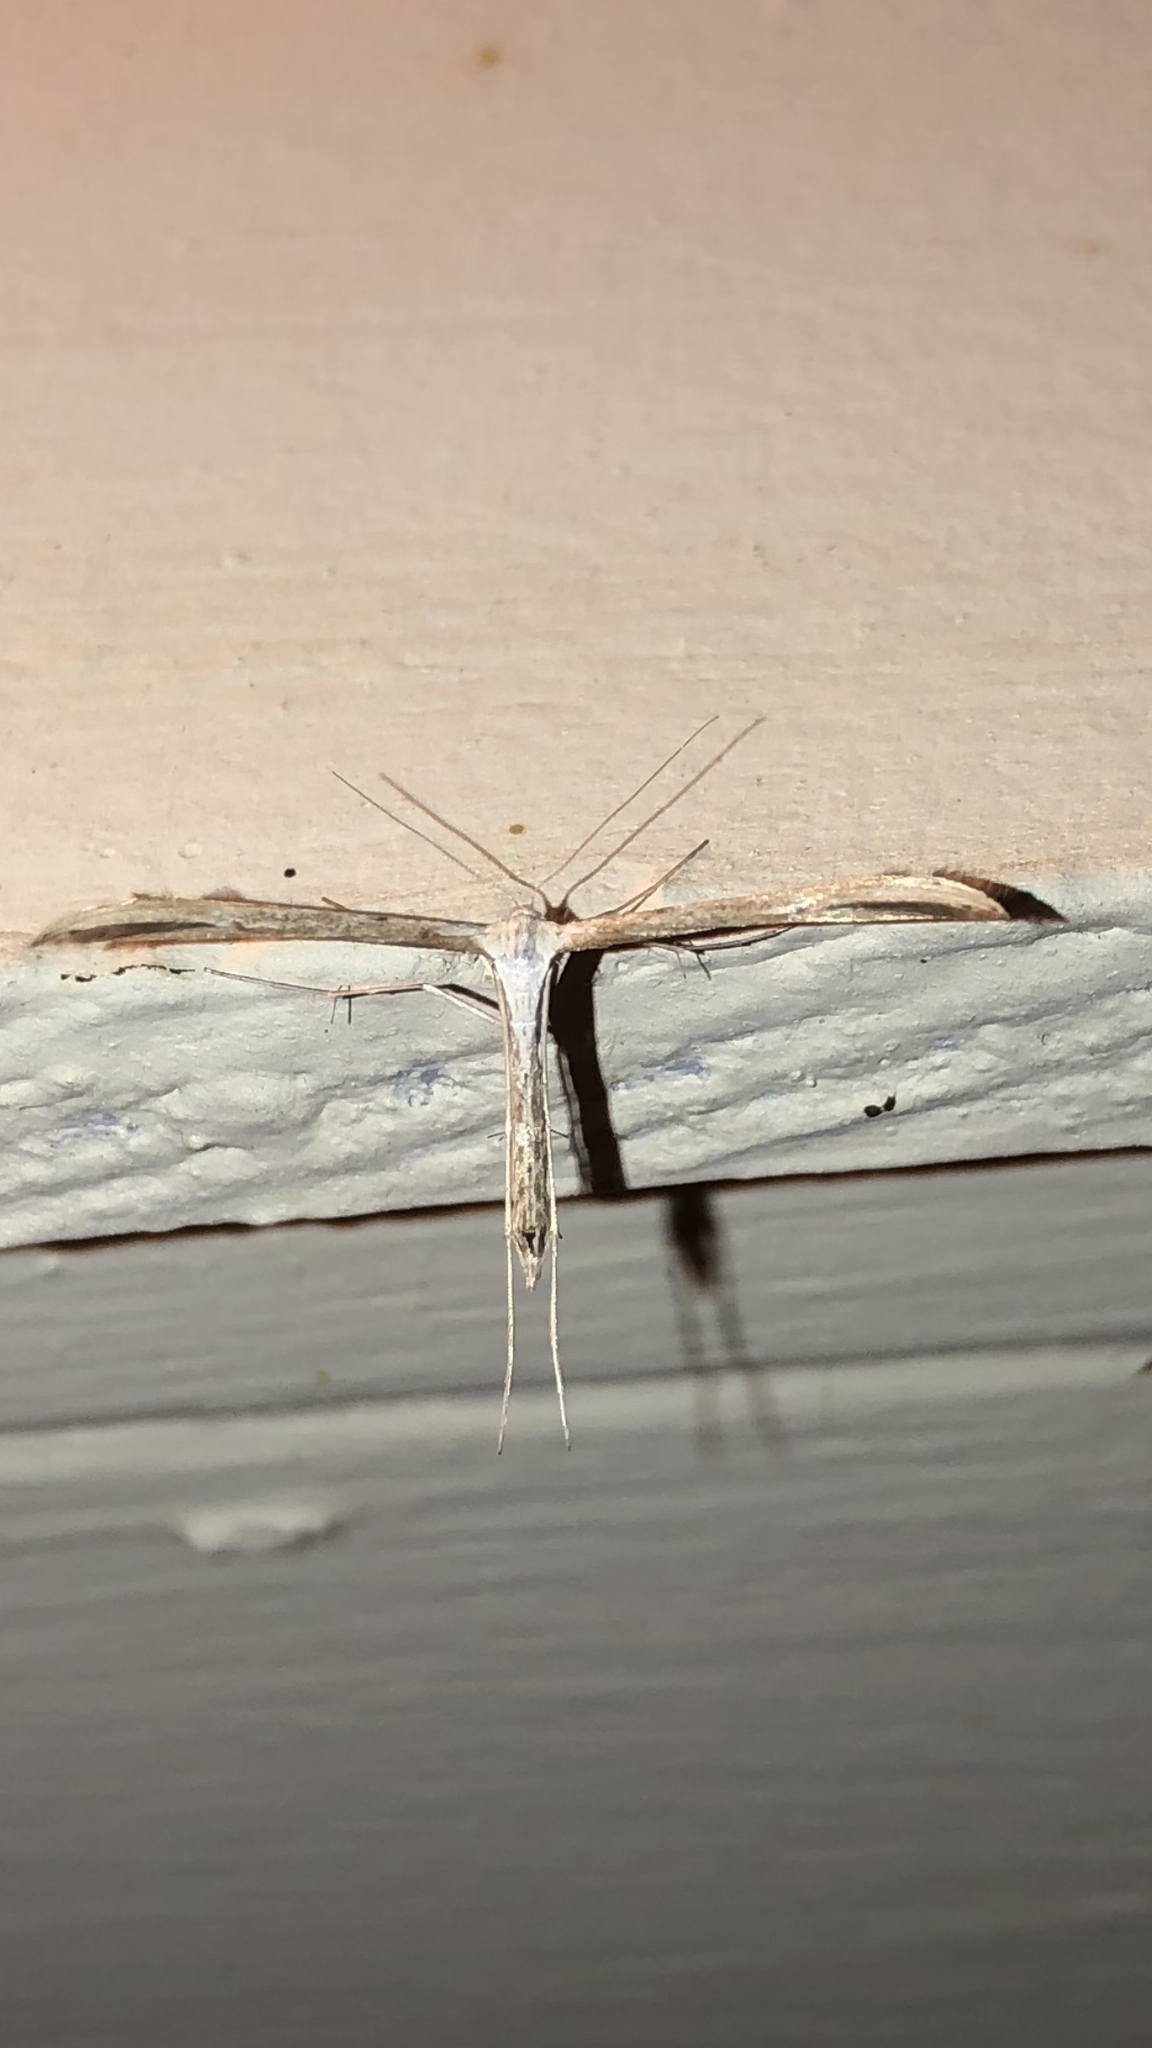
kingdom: Animalia
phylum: Arthropoda
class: Insecta
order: Lepidoptera
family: Pterophoridae
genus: Emmelina
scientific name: Emmelina monodactyla
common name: Common plume
